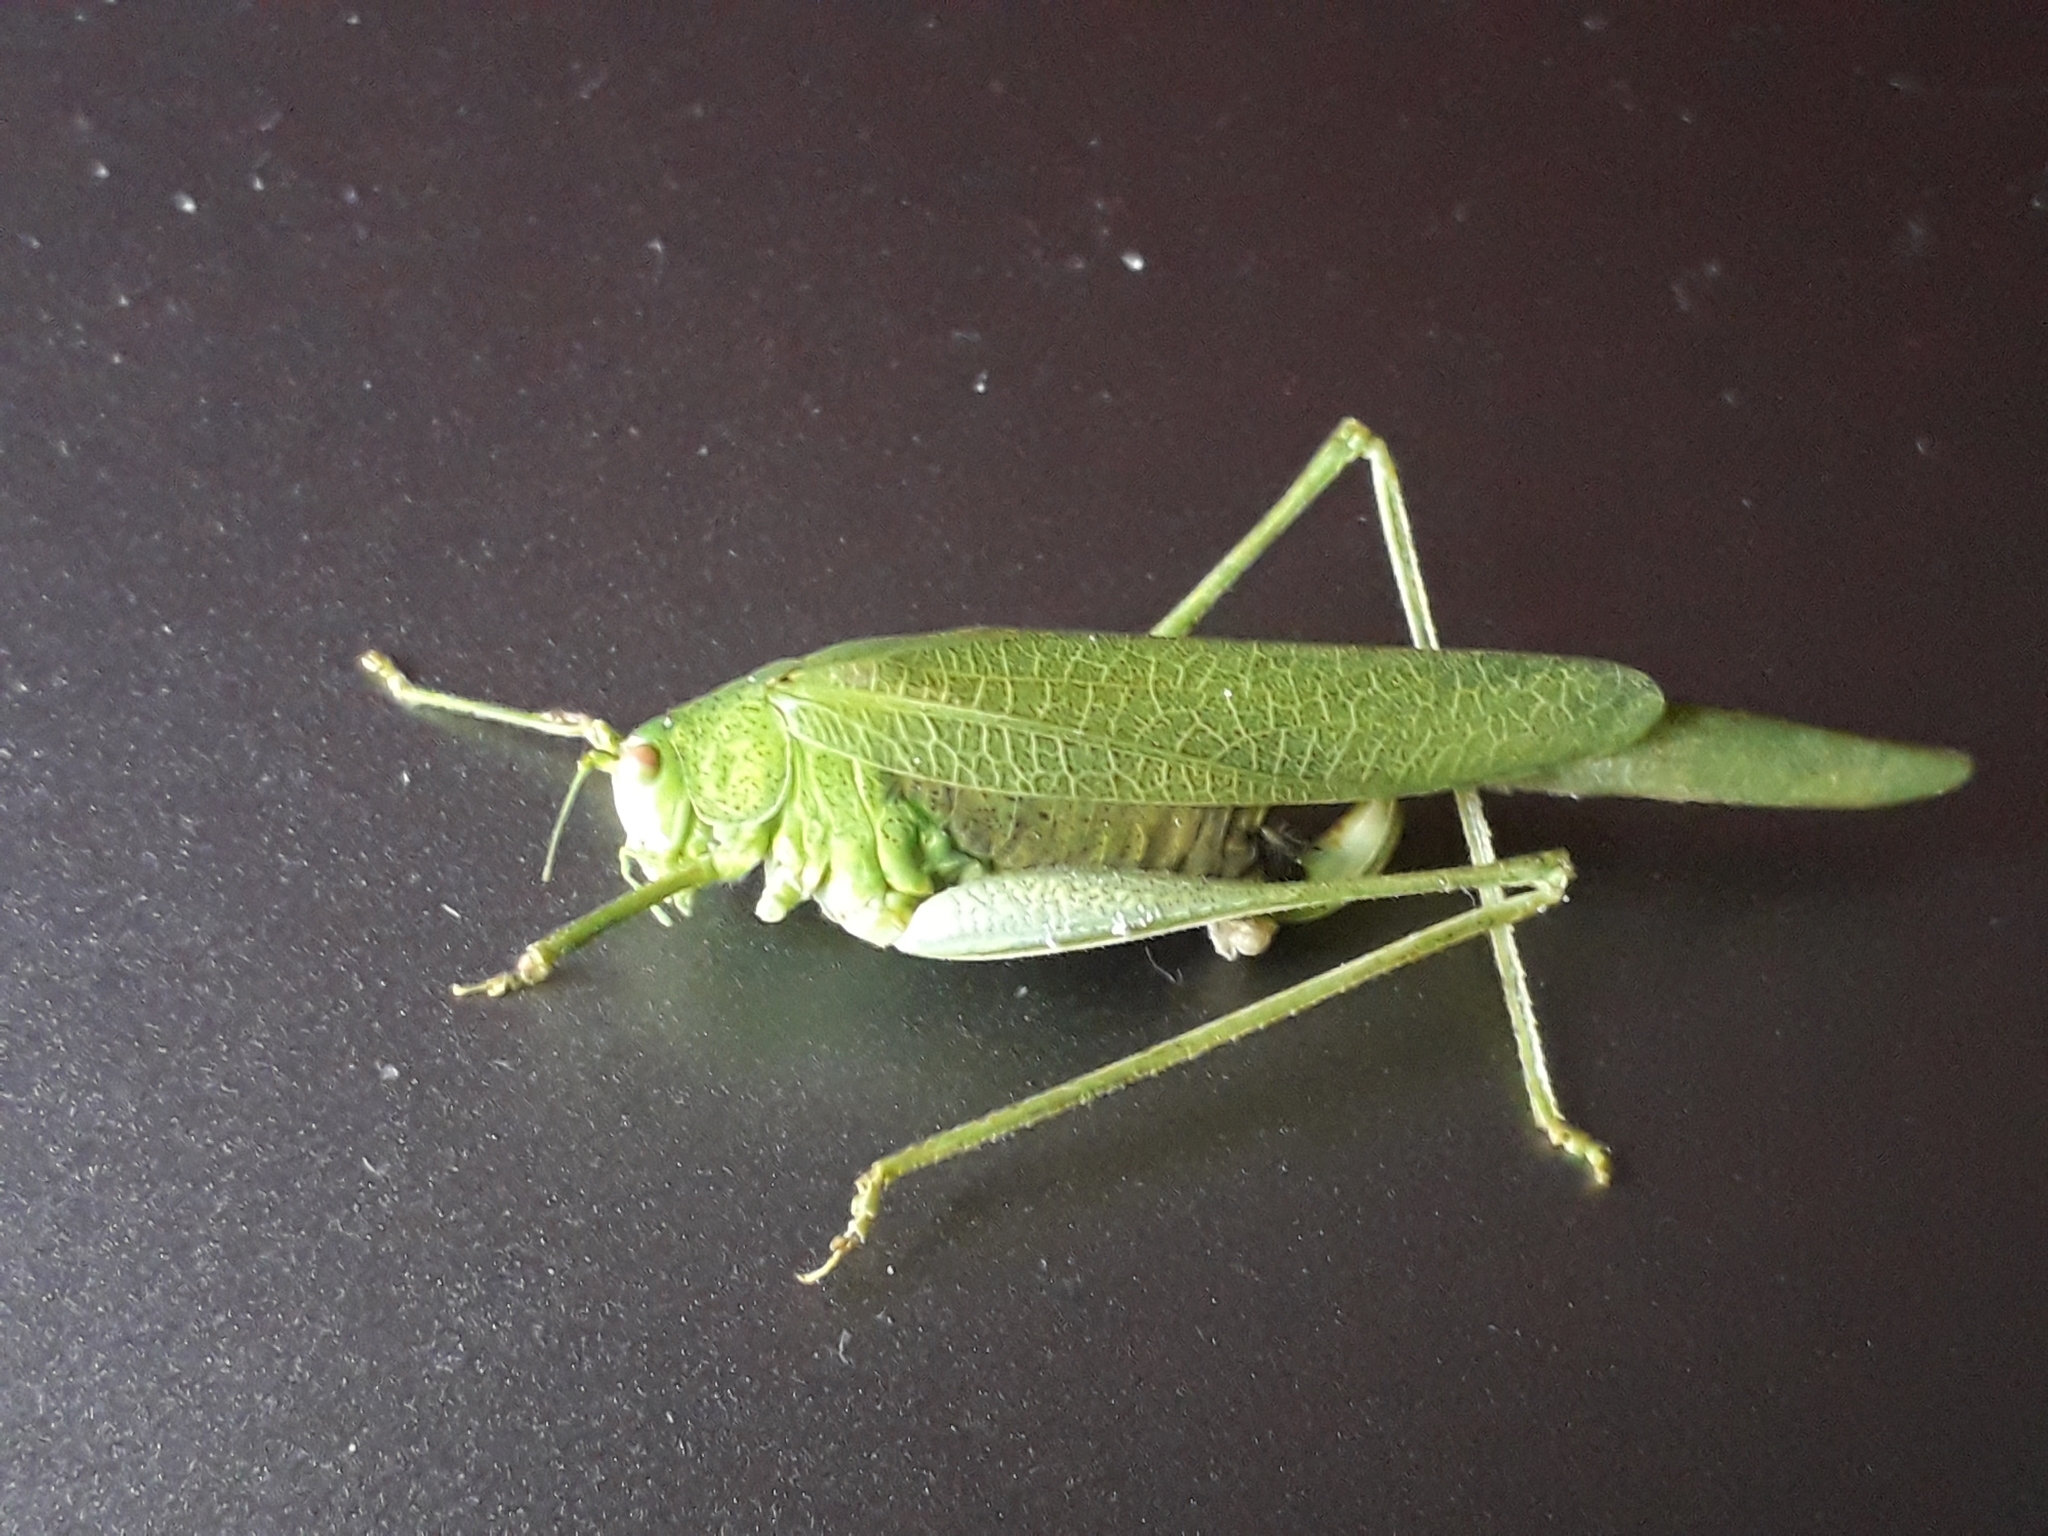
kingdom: Animalia
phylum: Arthropoda
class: Insecta
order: Orthoptera
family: Tettigoniidae
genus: Phaneroptera
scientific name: Phaneroptera nana
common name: Southern sickle bush-cricket
